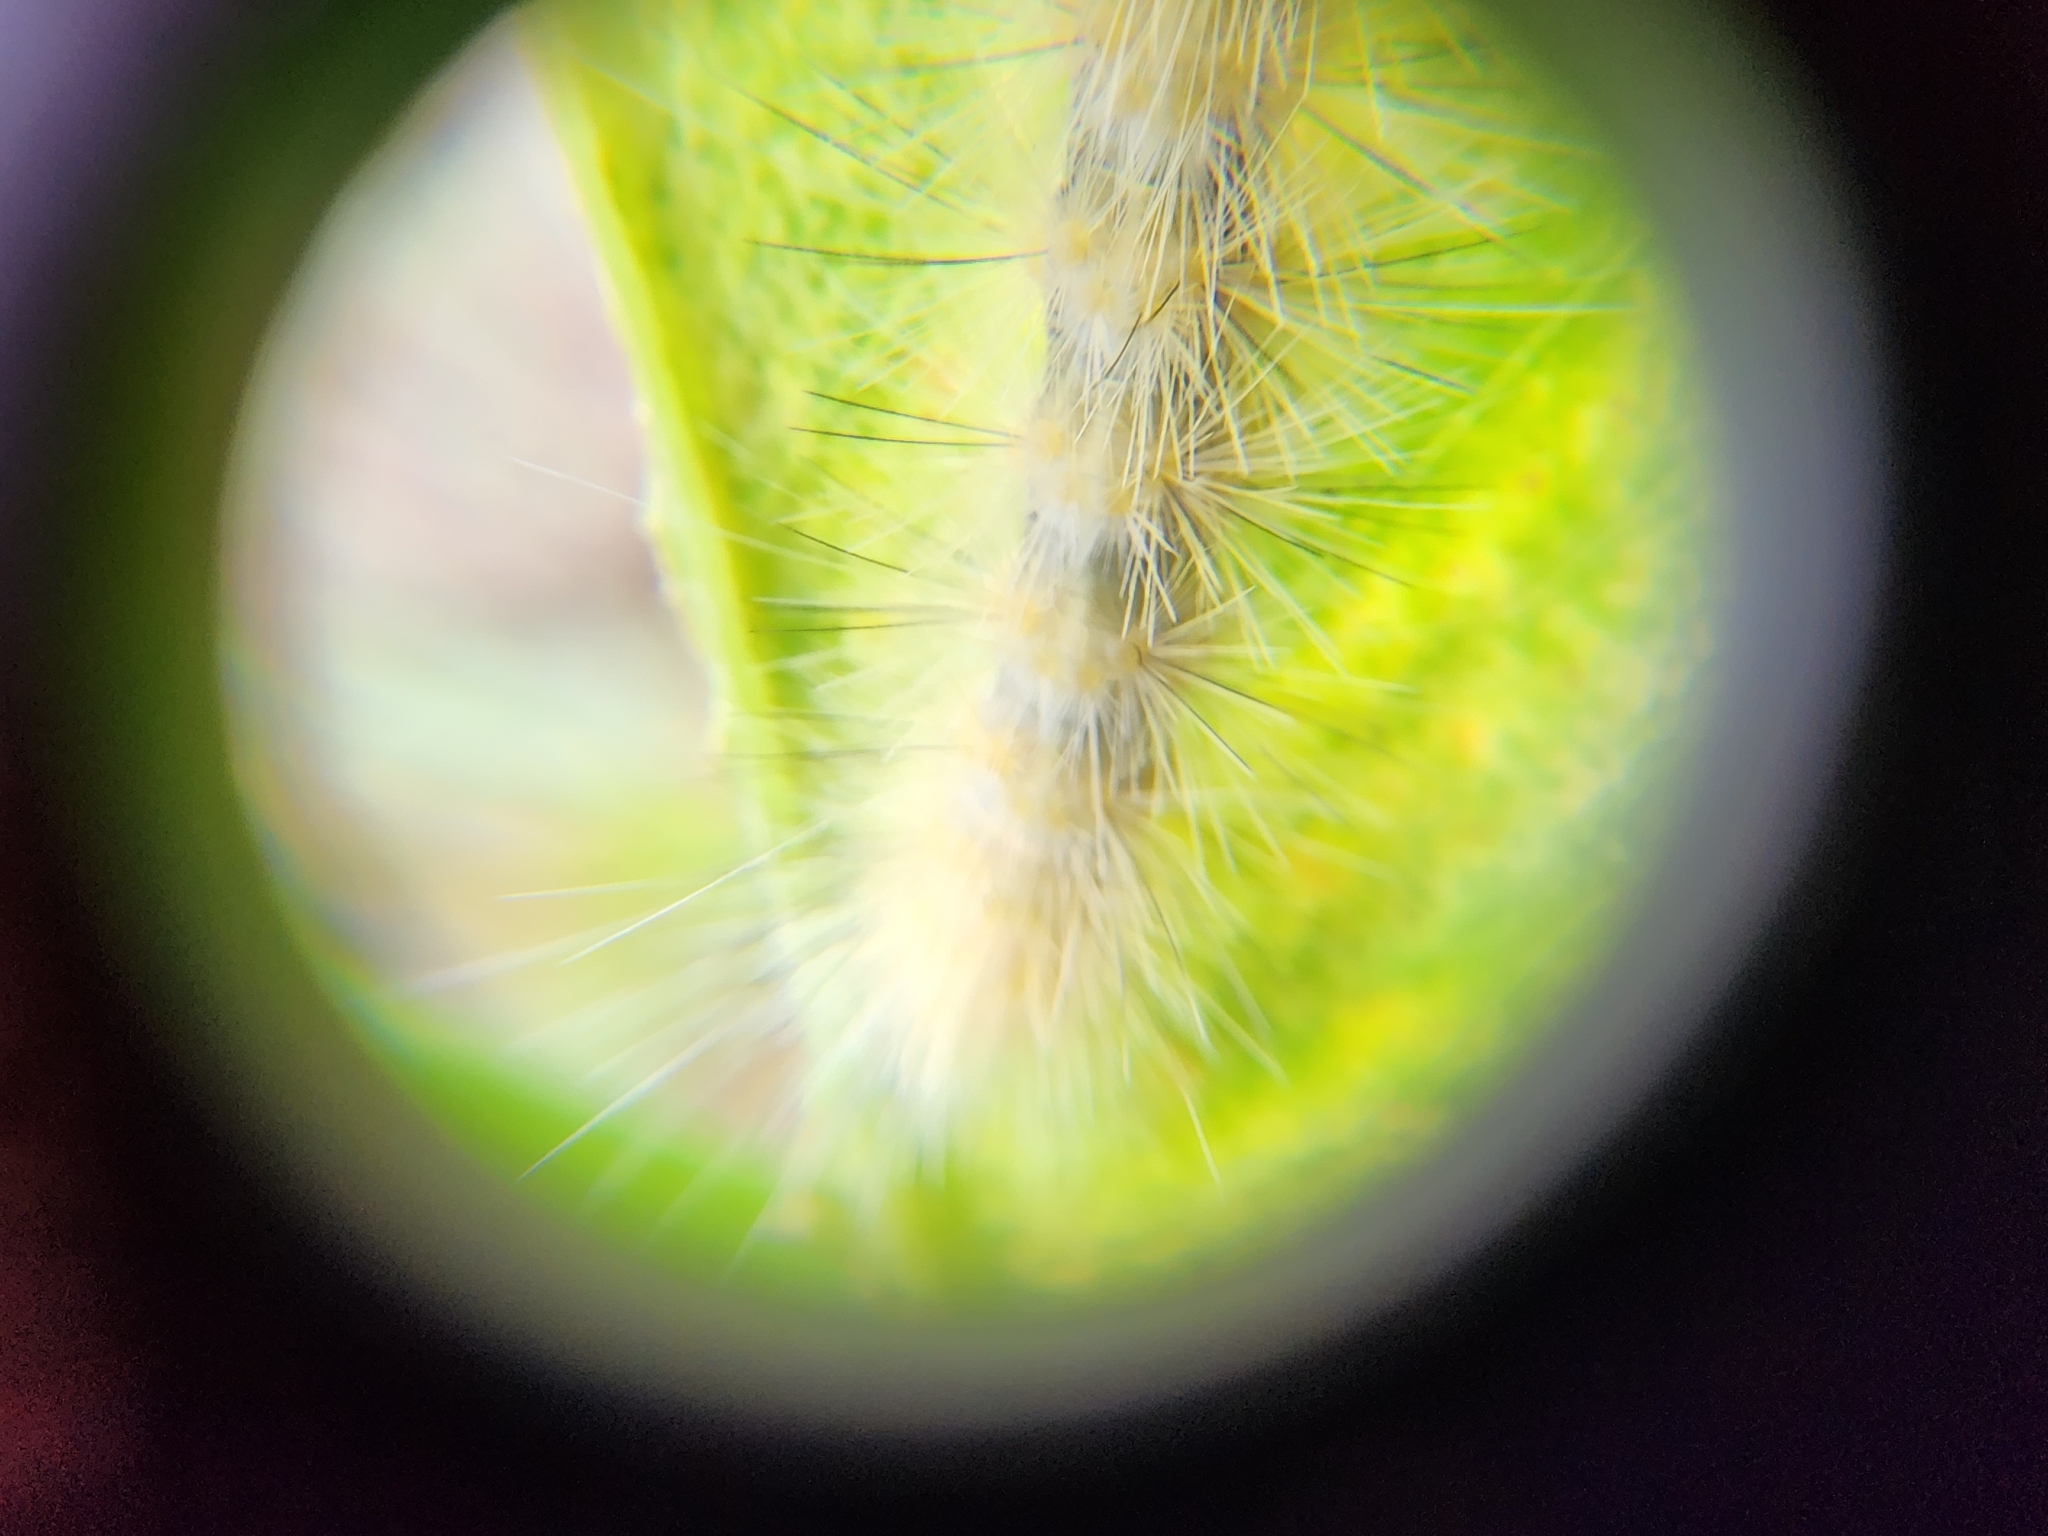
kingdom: Animalia
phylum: Arthropoda
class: Insecta
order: Lepidoptera
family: Erebidae
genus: Spilosoma
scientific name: Spilosoma virginica
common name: Virginia tiger moth
